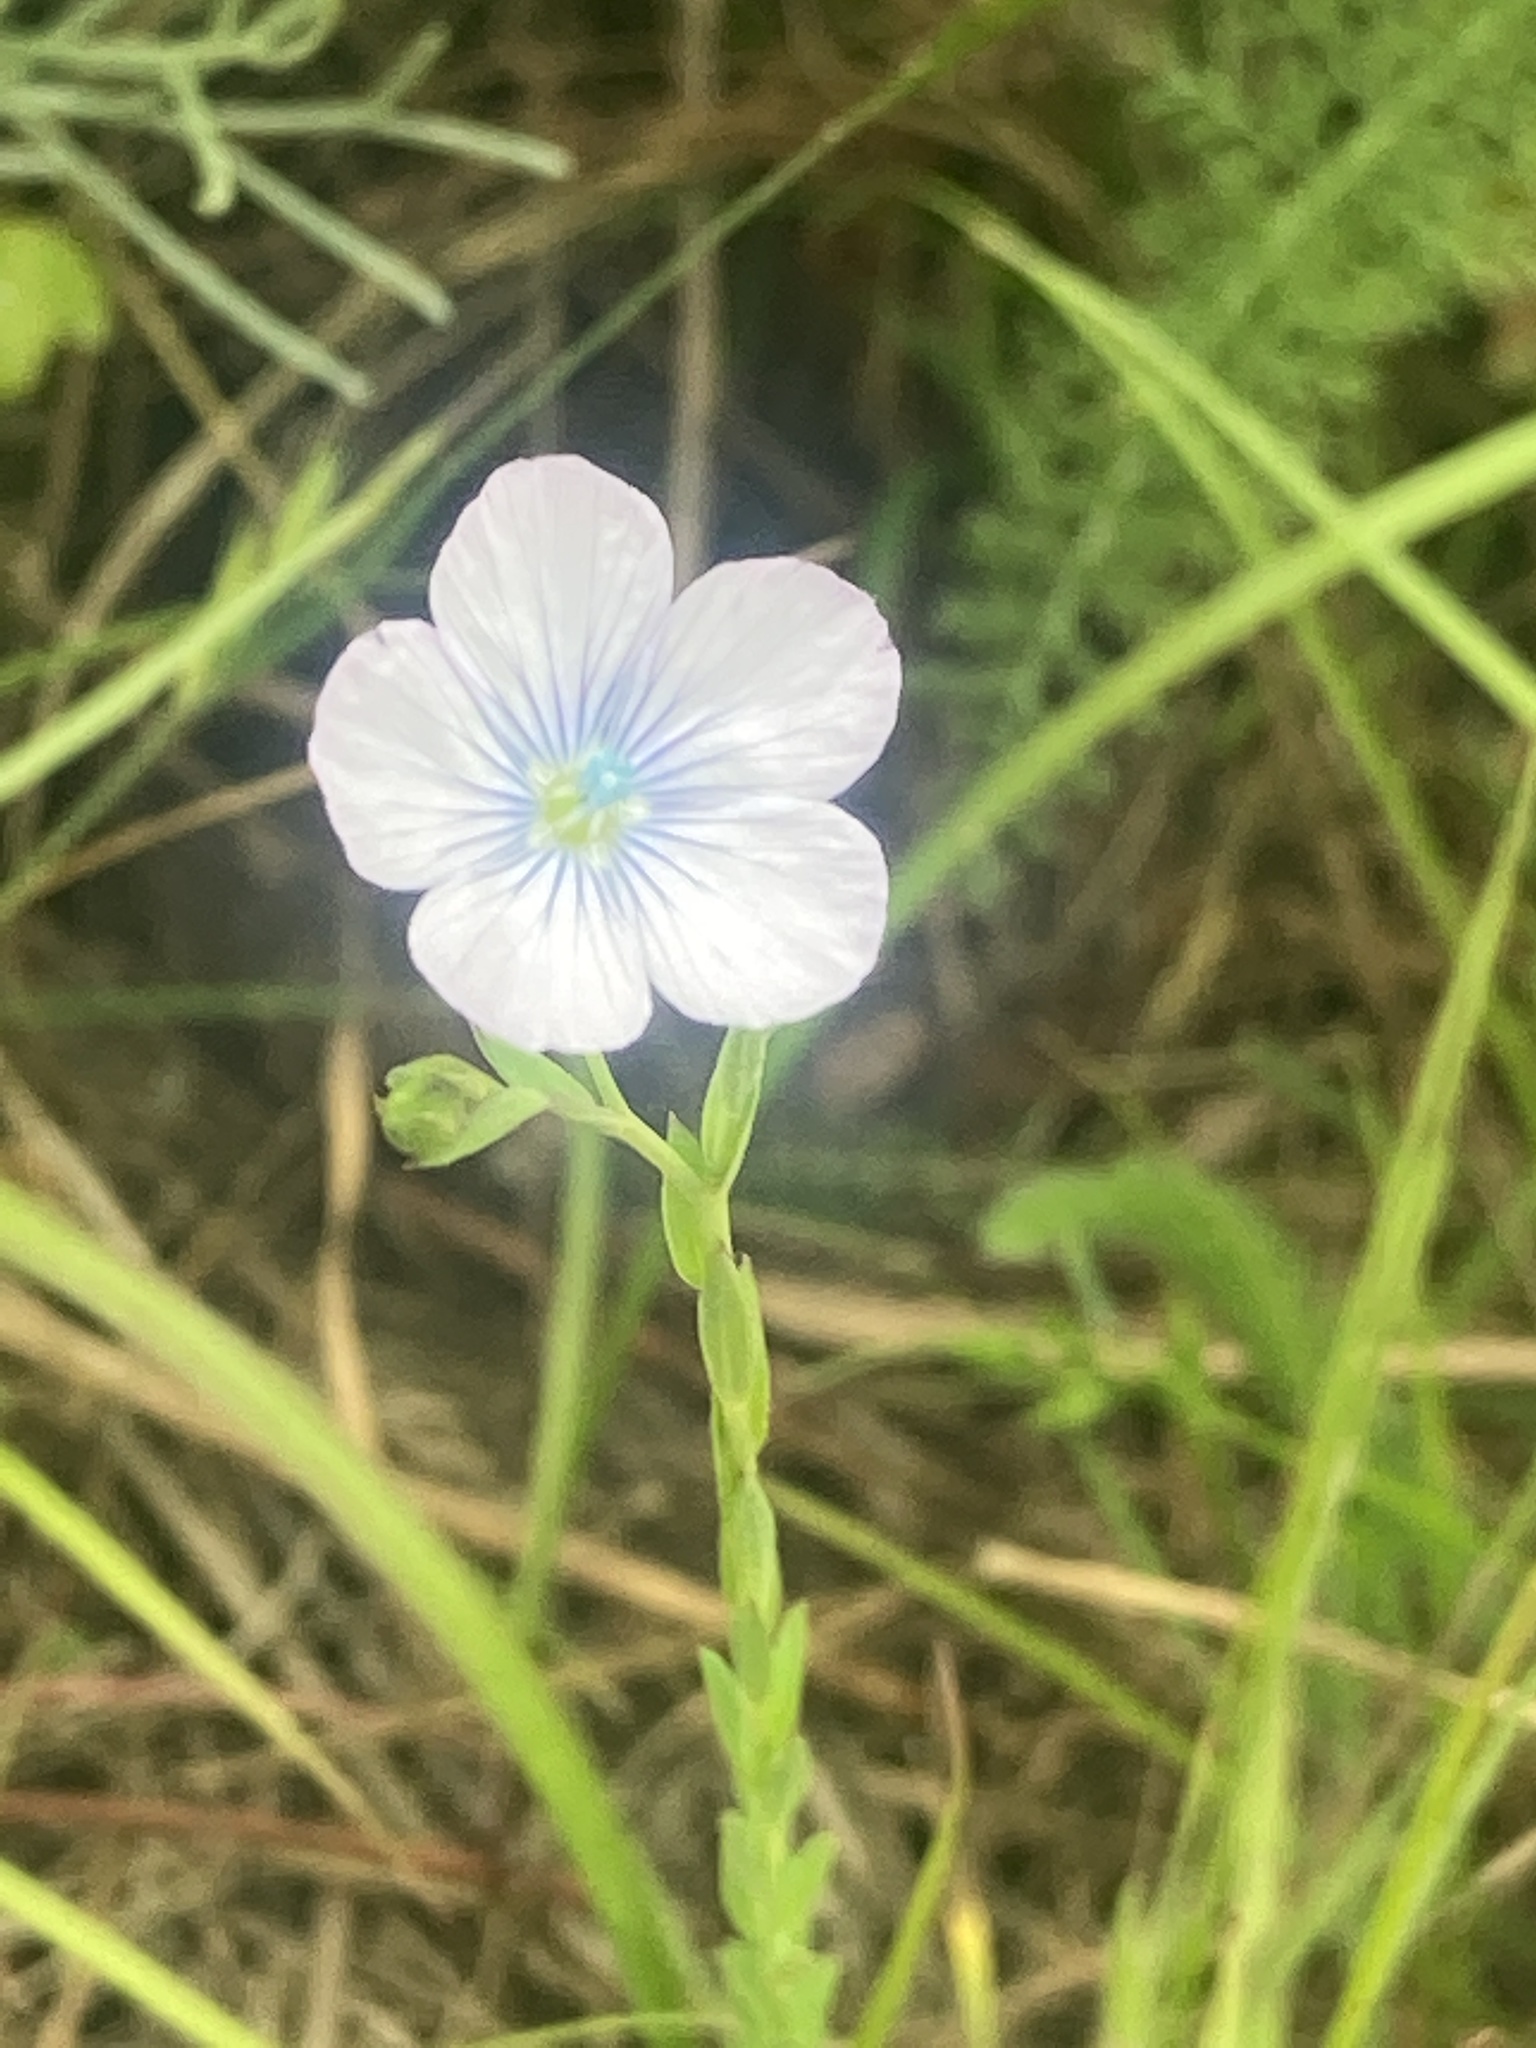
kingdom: Plantae
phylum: Tracheophyta
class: Magnoliopsida
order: Malpighiales
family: Linaceae
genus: Linum
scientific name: Linum bienne
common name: Pale flax
